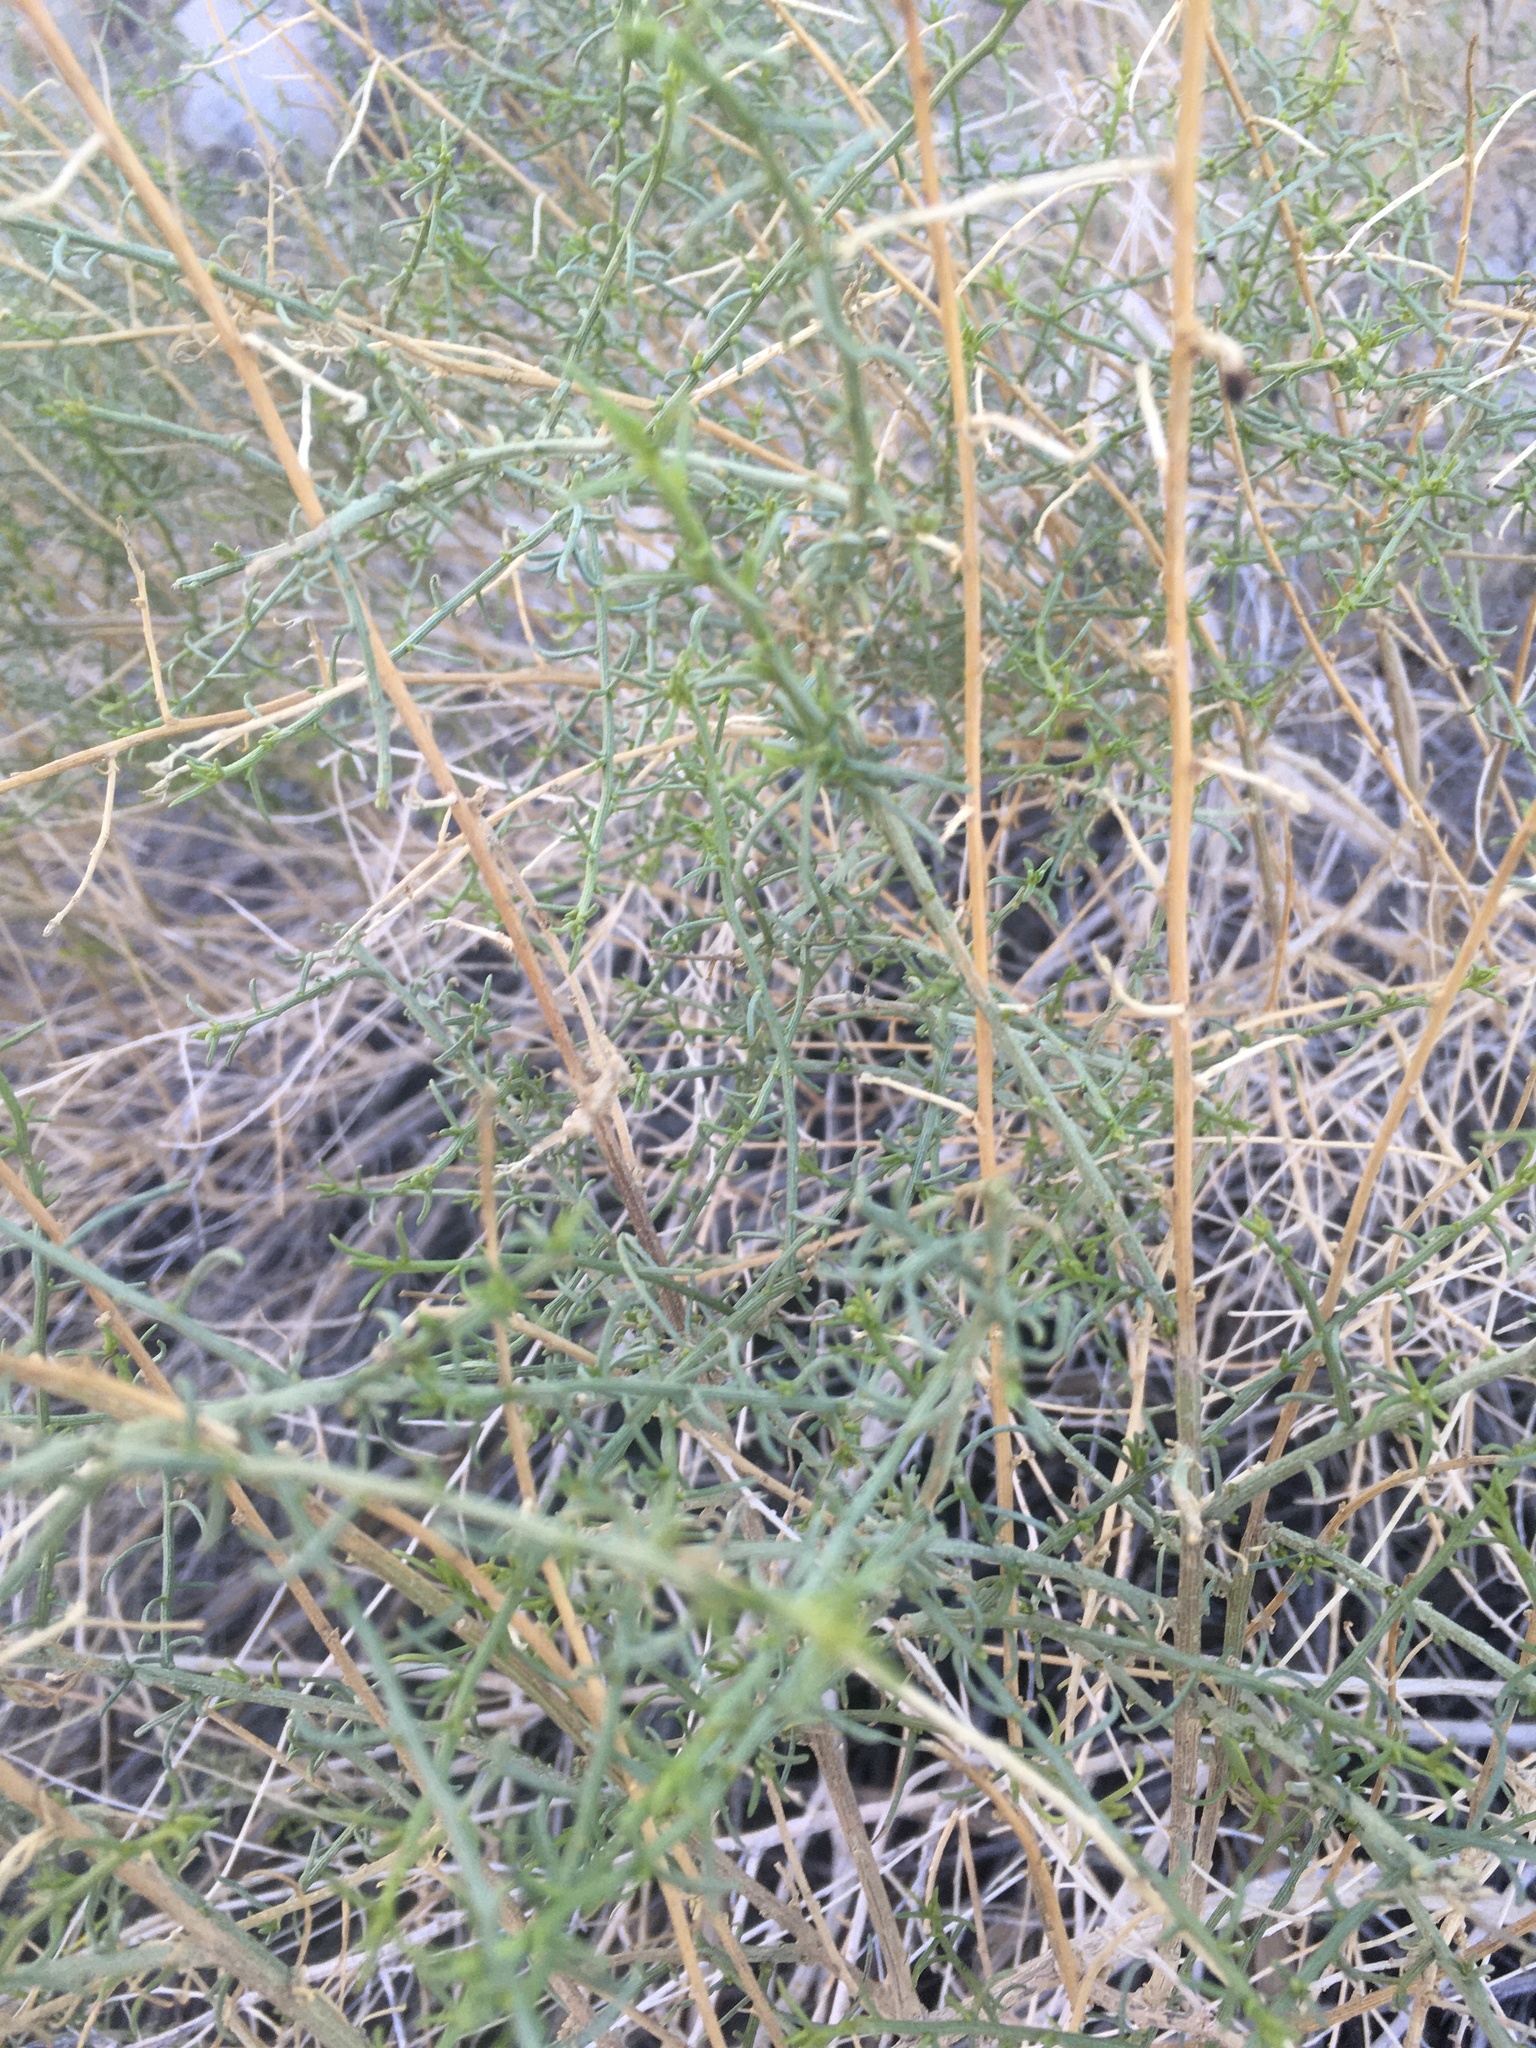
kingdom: Plantae
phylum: Tracheophyta
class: Magnoliopsida
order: Asterales
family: Asteraceae
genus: Ambrosia
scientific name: Ambrosia salsola
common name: Burrobrush
